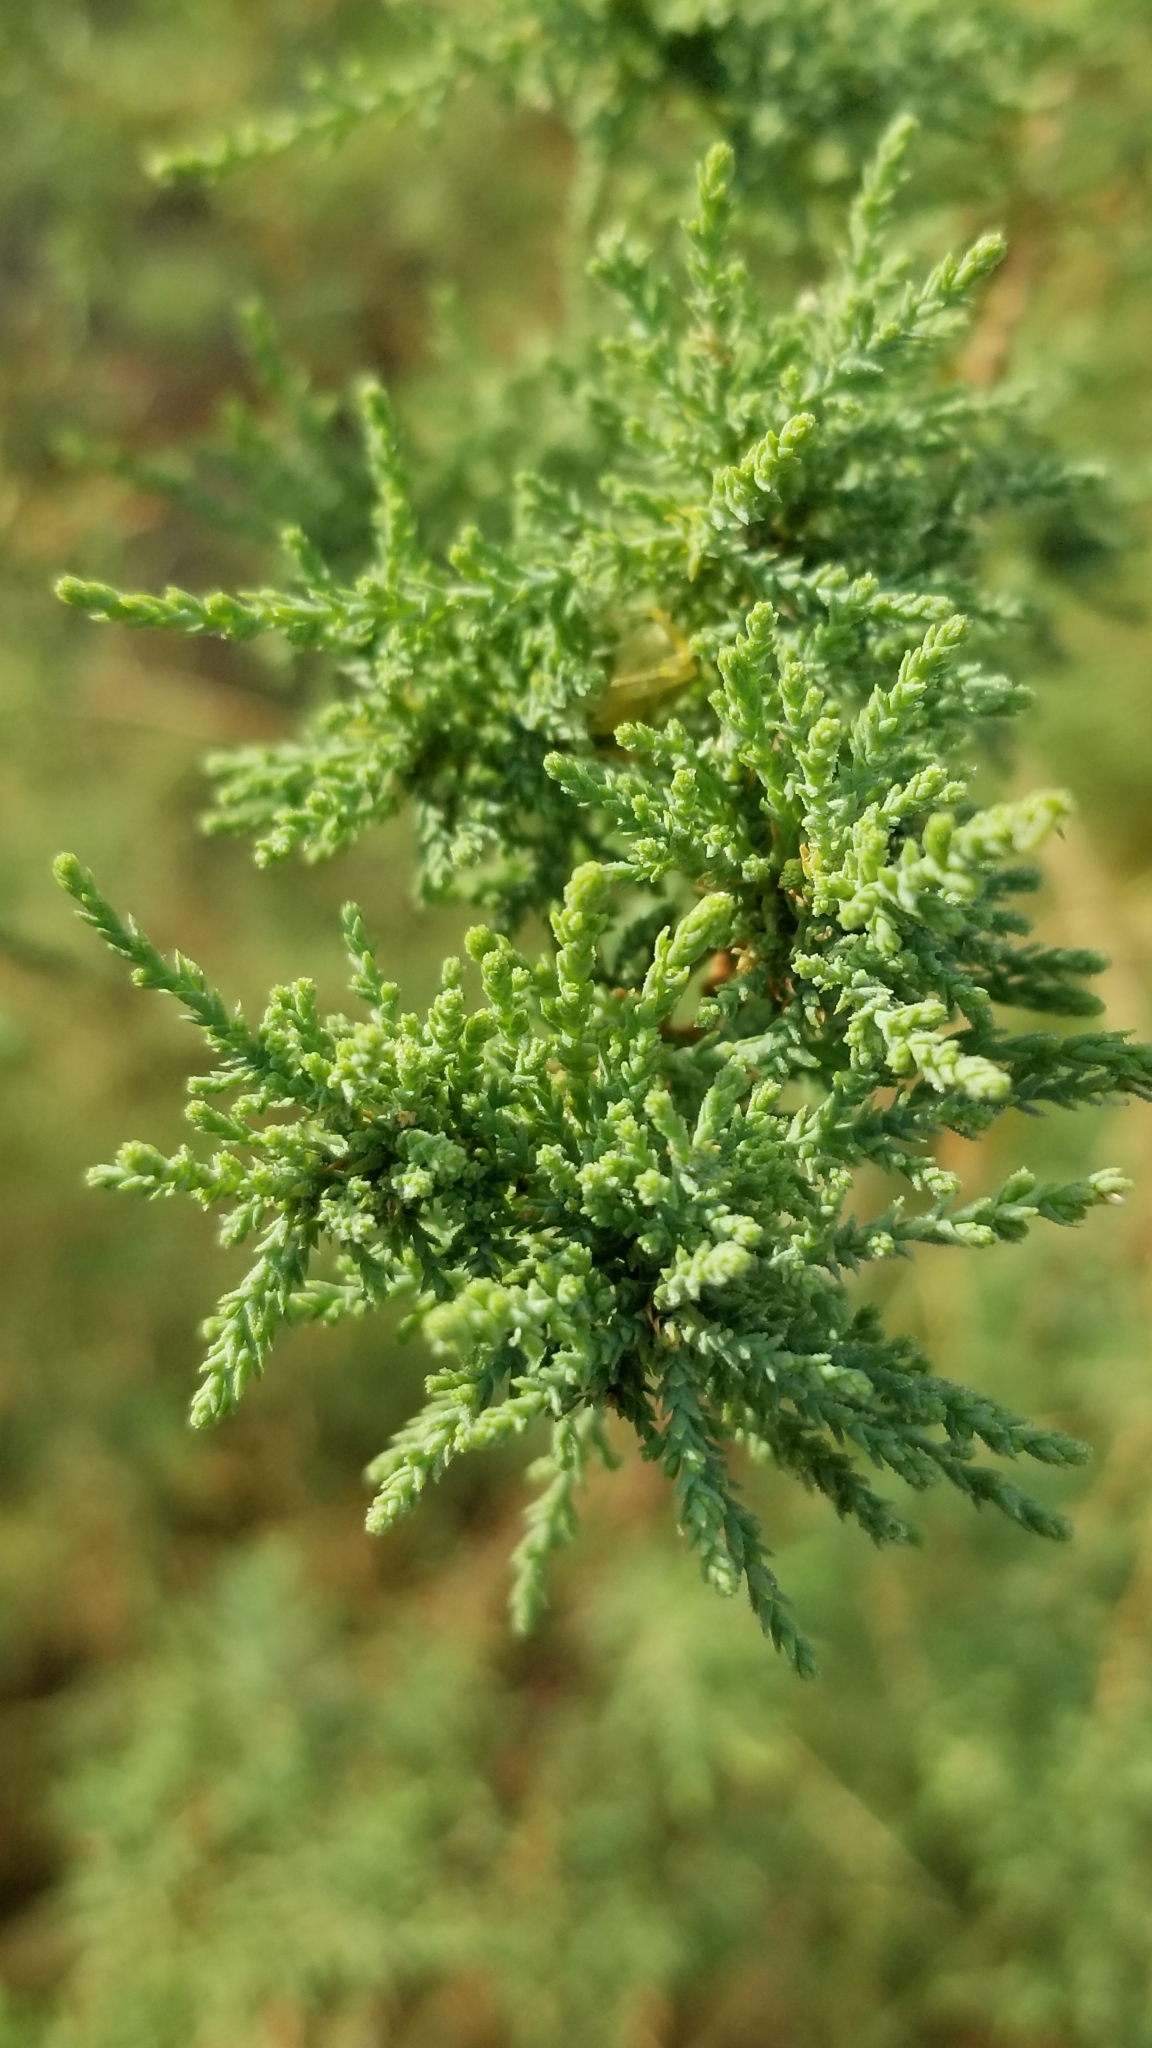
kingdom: Plantae
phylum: Tracheophyta
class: Magnoliopsida
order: Caryophyllales
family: Tamaricaceae
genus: Tamarix
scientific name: Tamarix
